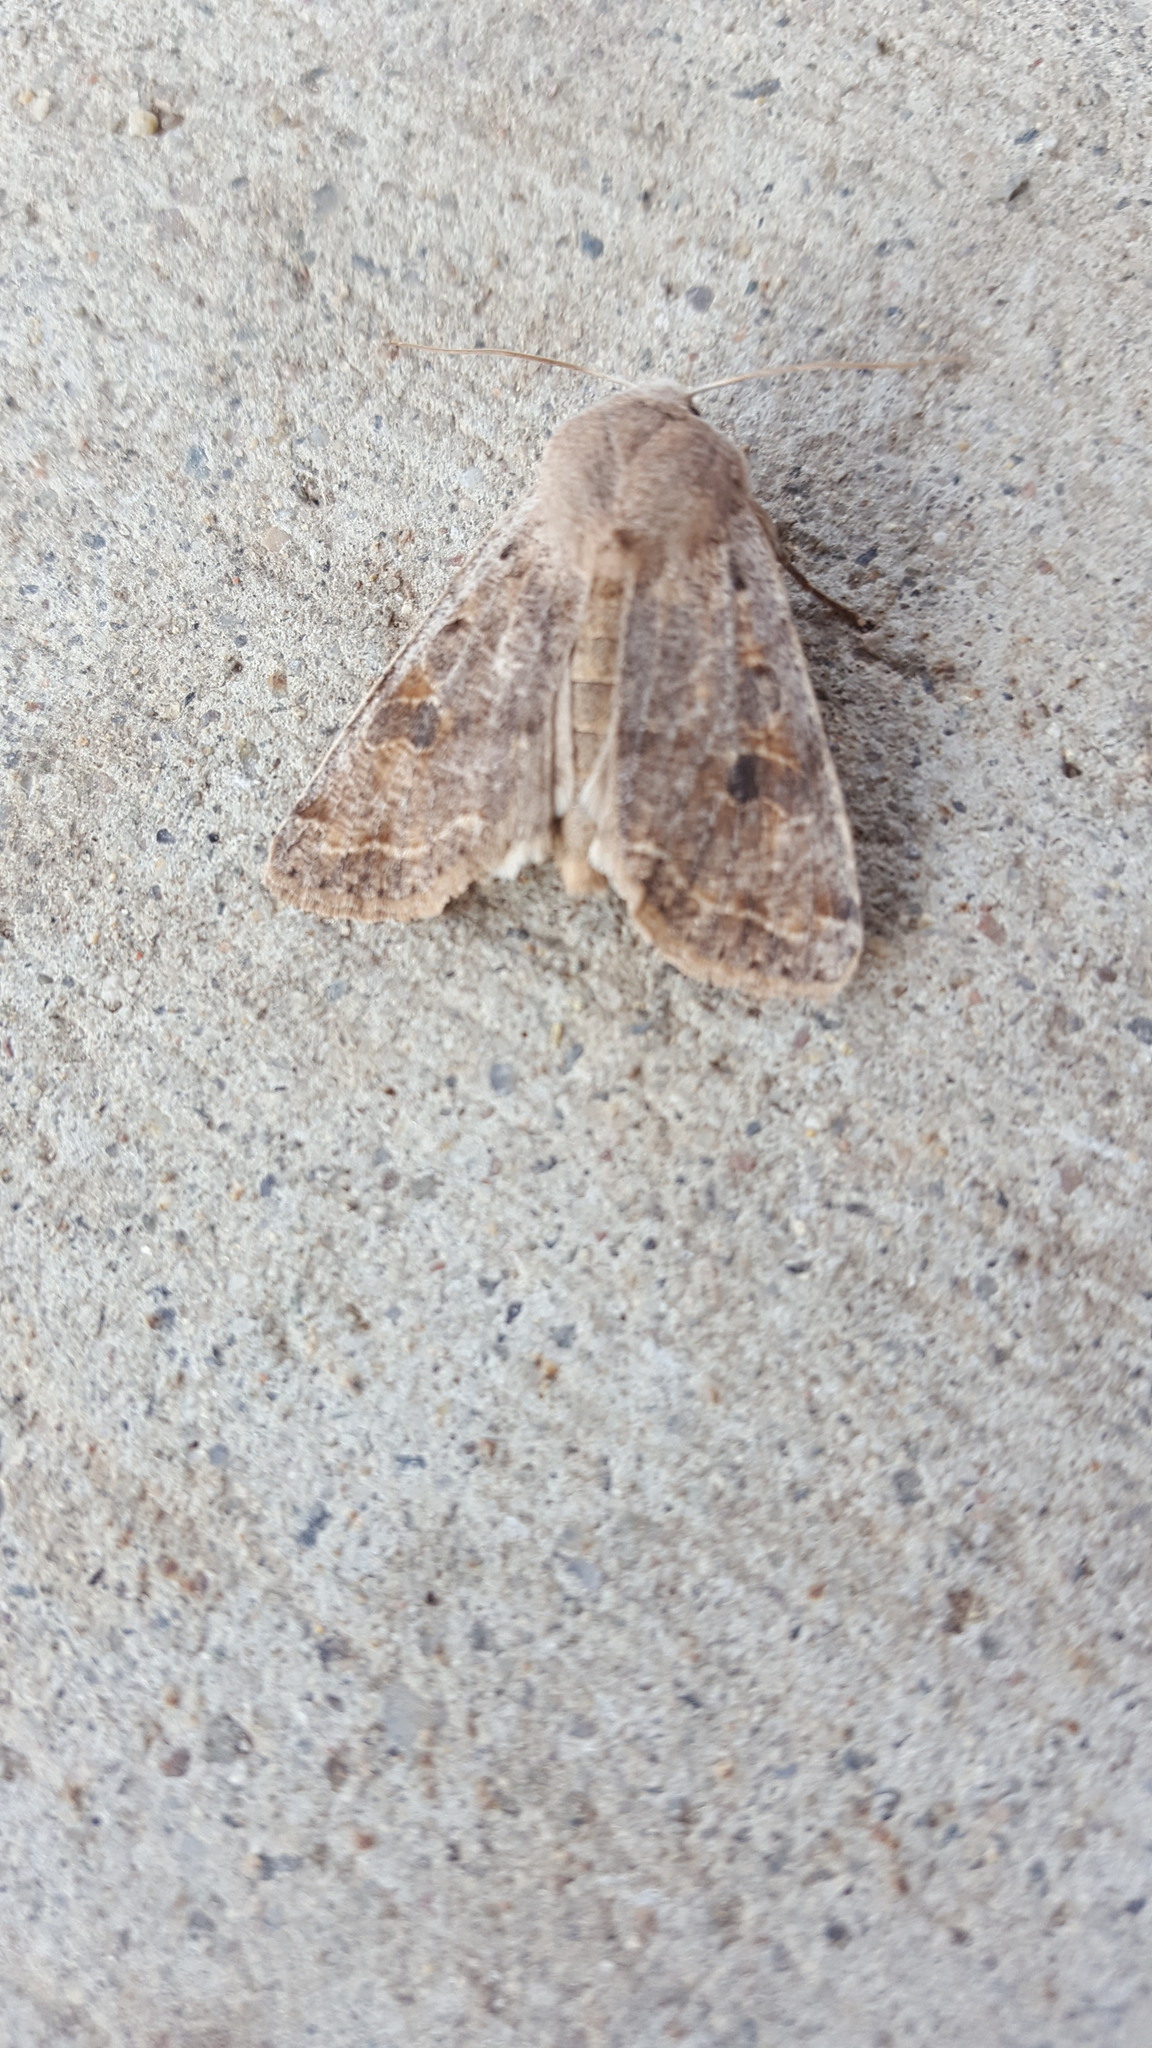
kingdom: Animalia
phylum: Arthropoda
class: Insecta
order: Lepidoptera
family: Noctuidae
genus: Orthosia
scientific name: Orthosia hibisci
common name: Green fruitworm
